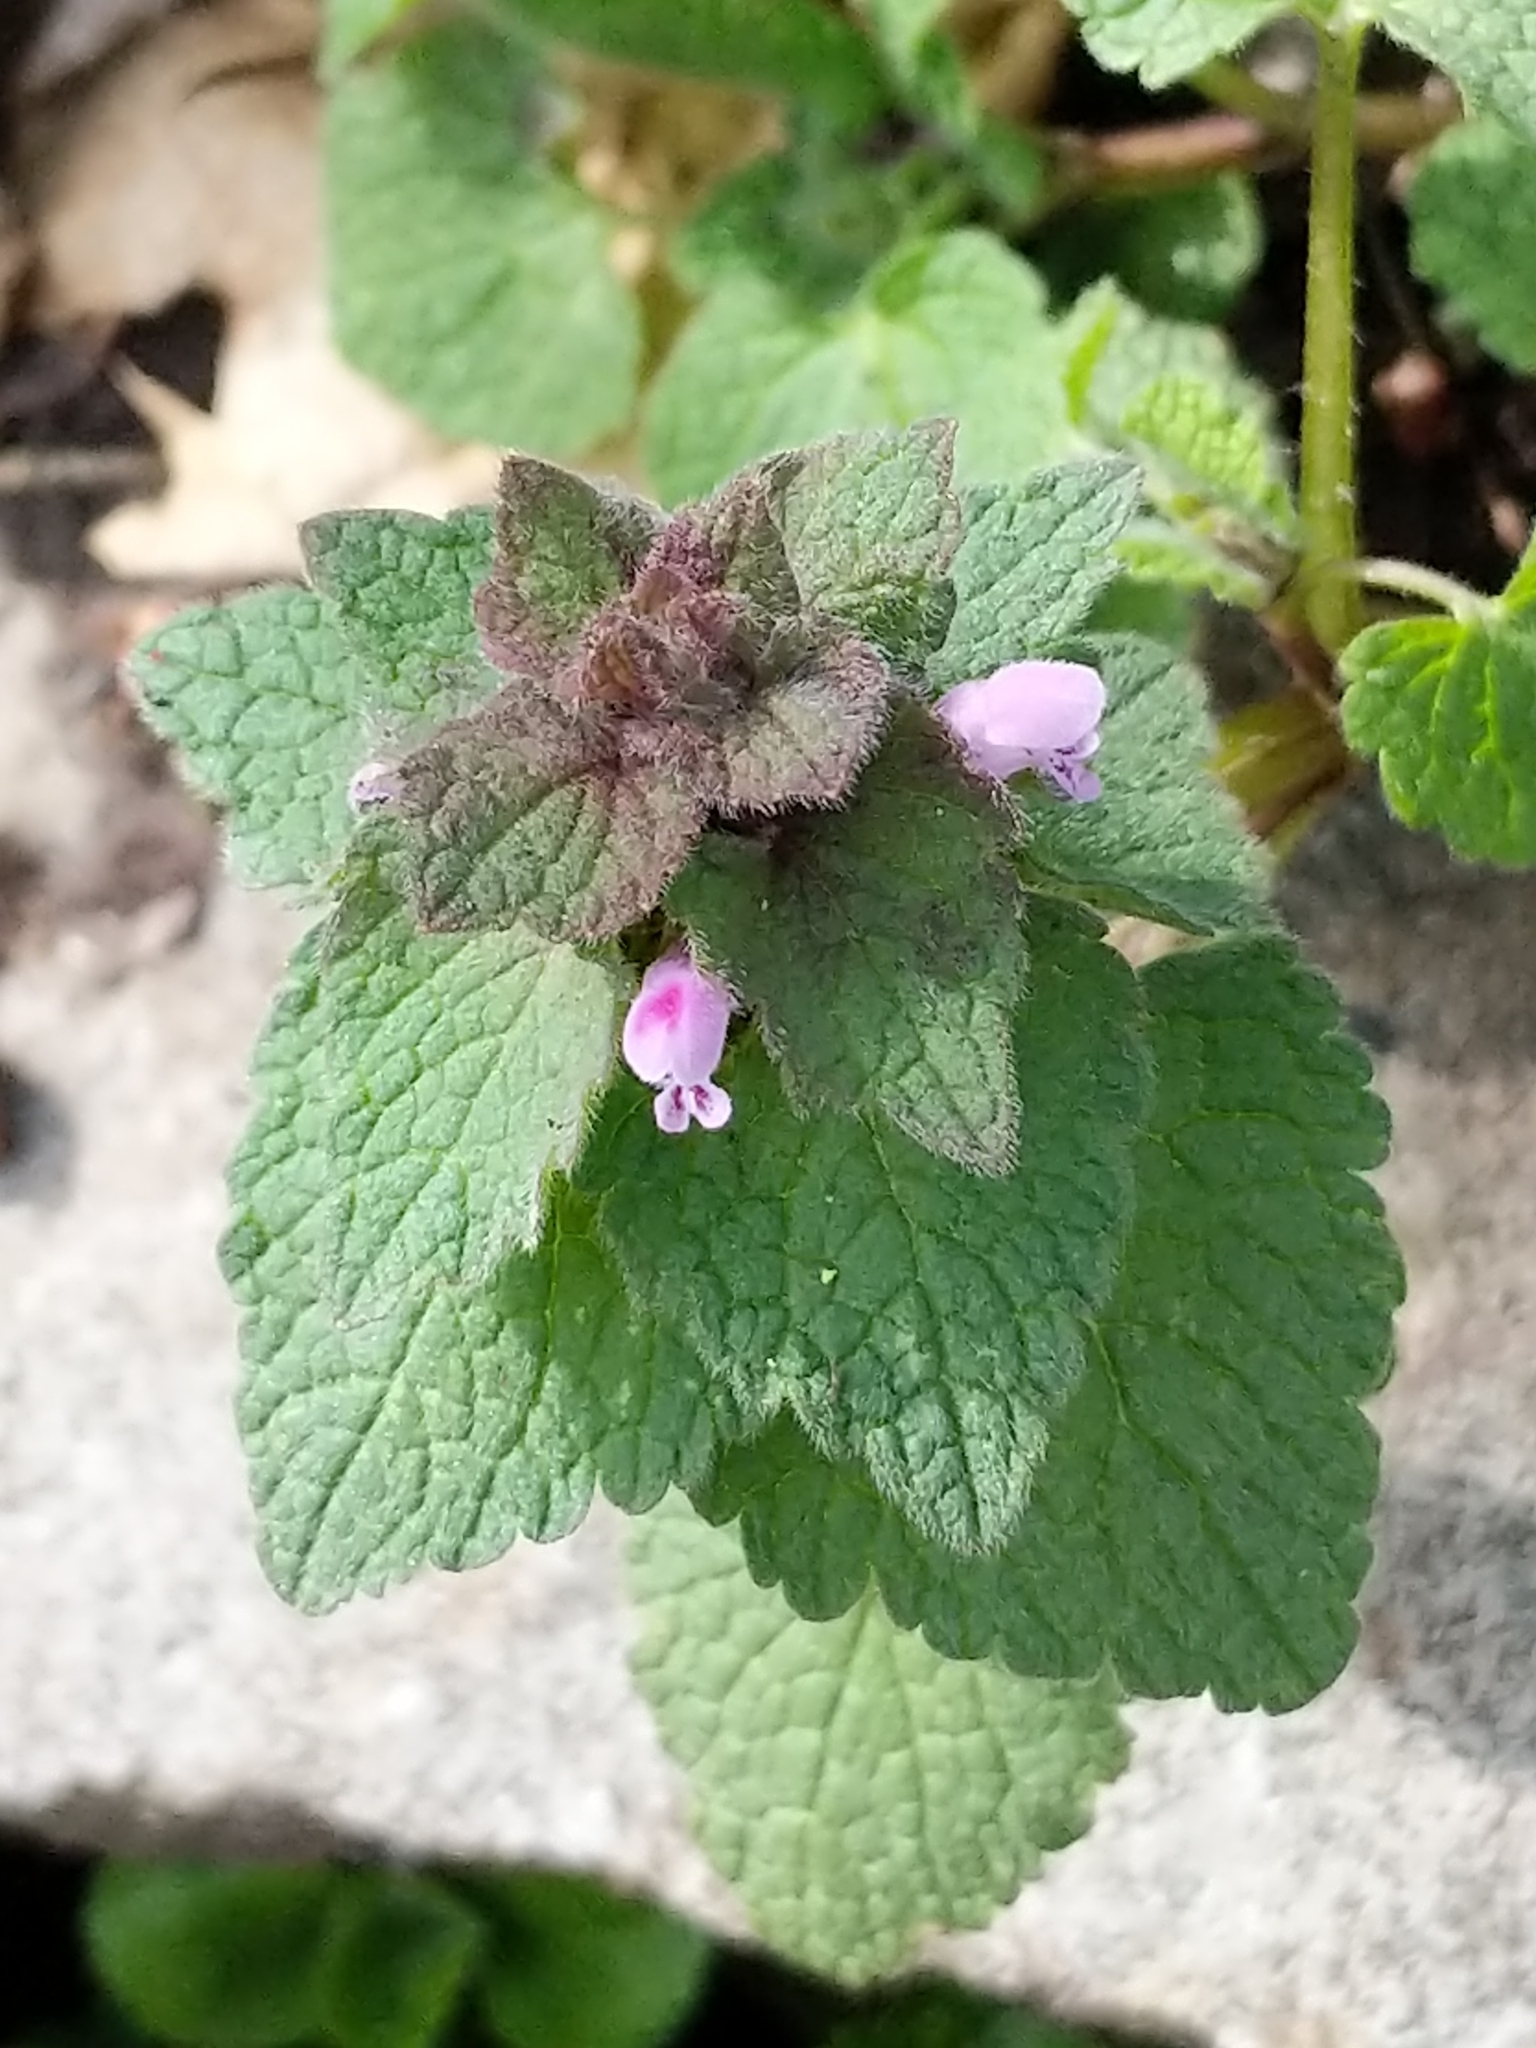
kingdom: Plantae
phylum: Tracheophyta
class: Magnoliopsida
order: Lamiales
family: Lamiaceae
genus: Lamium
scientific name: Lamium purpureum
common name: Red dead-nettle
